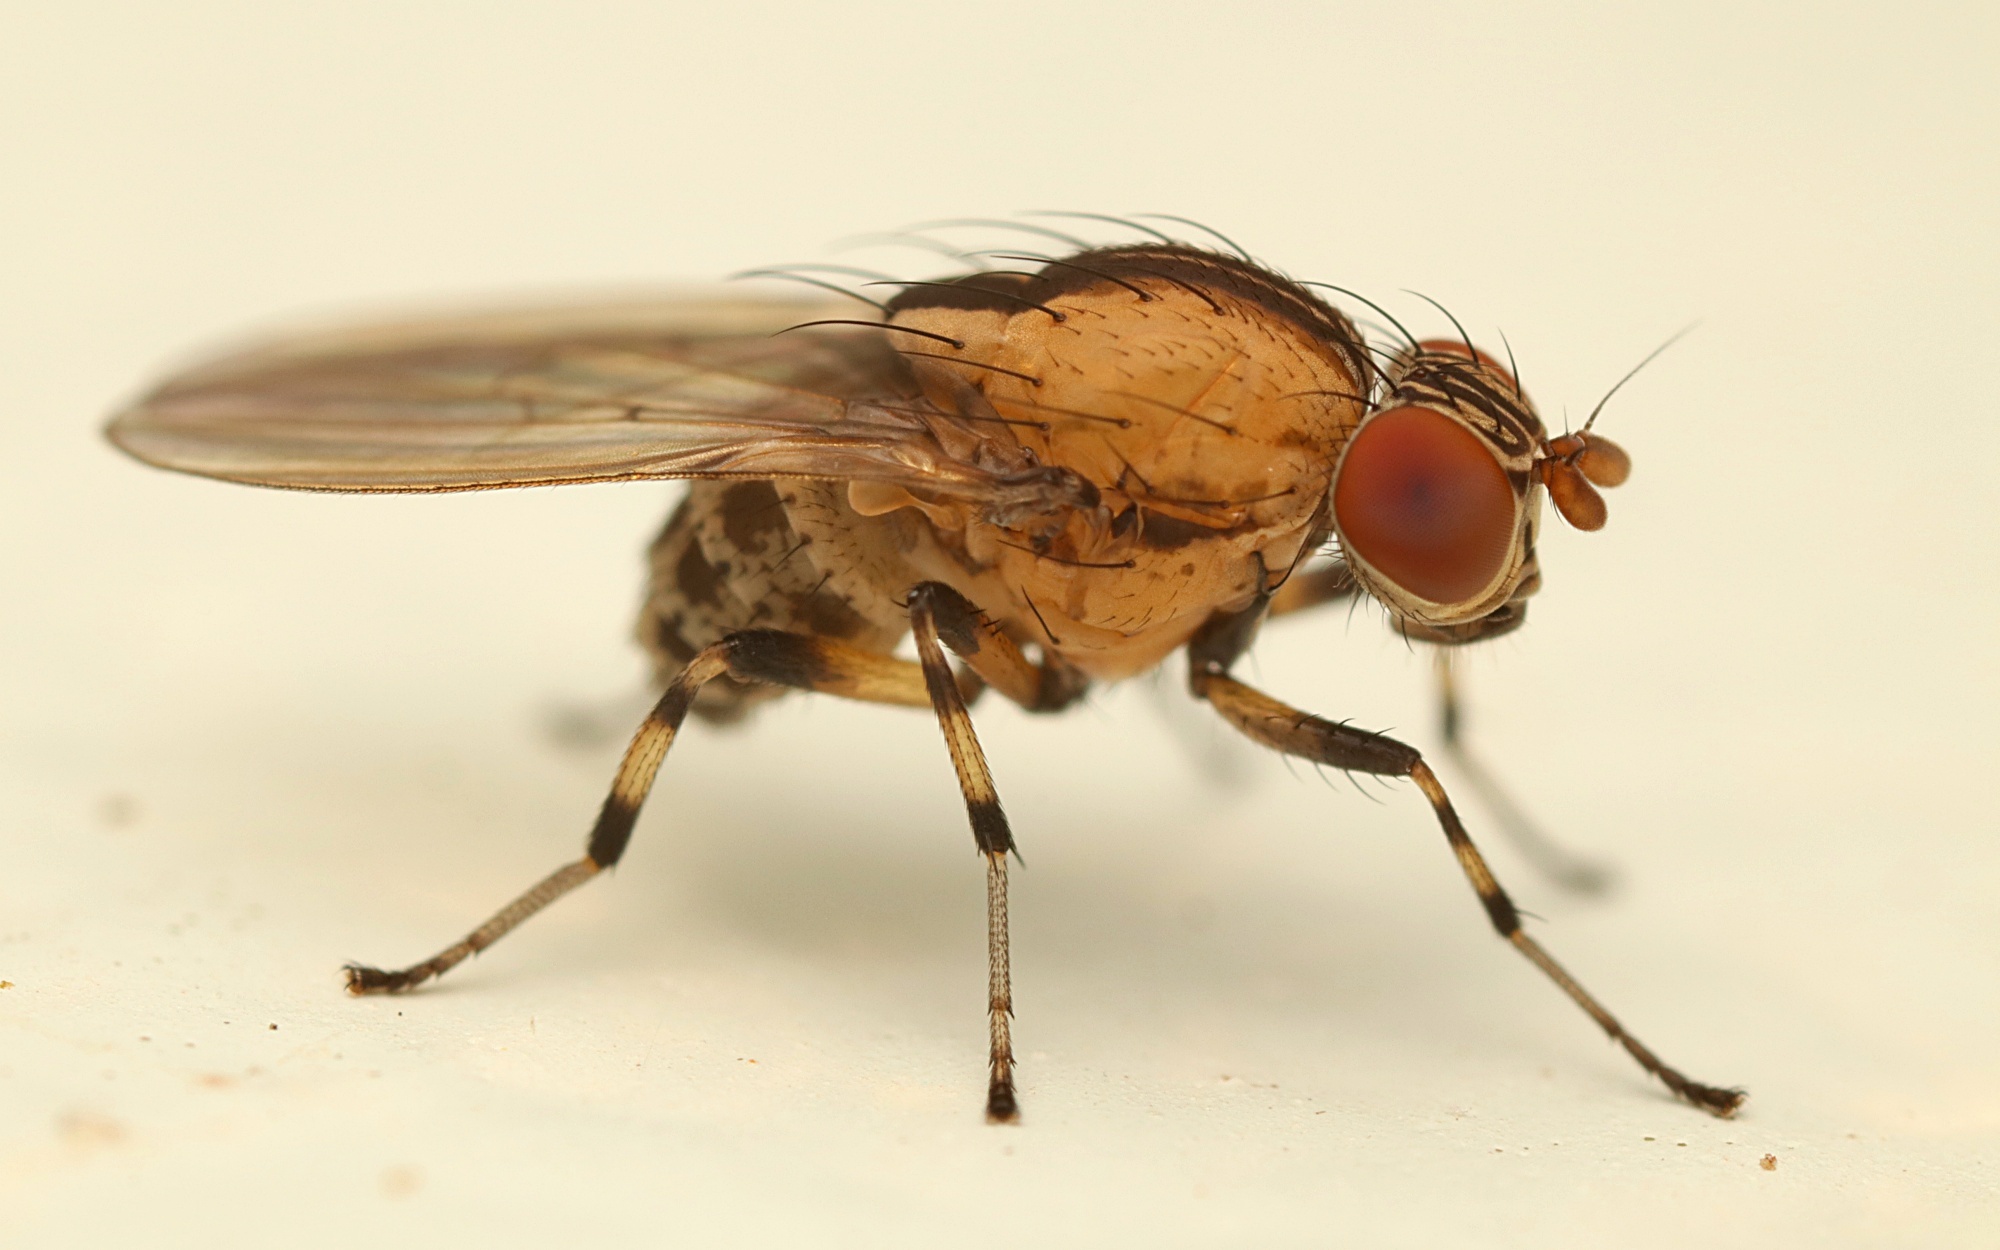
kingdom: Animalia
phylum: Arthropoda
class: Insecta
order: Diptera
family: Lauxaniidae
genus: Sapromyza
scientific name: Sapromyza neozelandica
